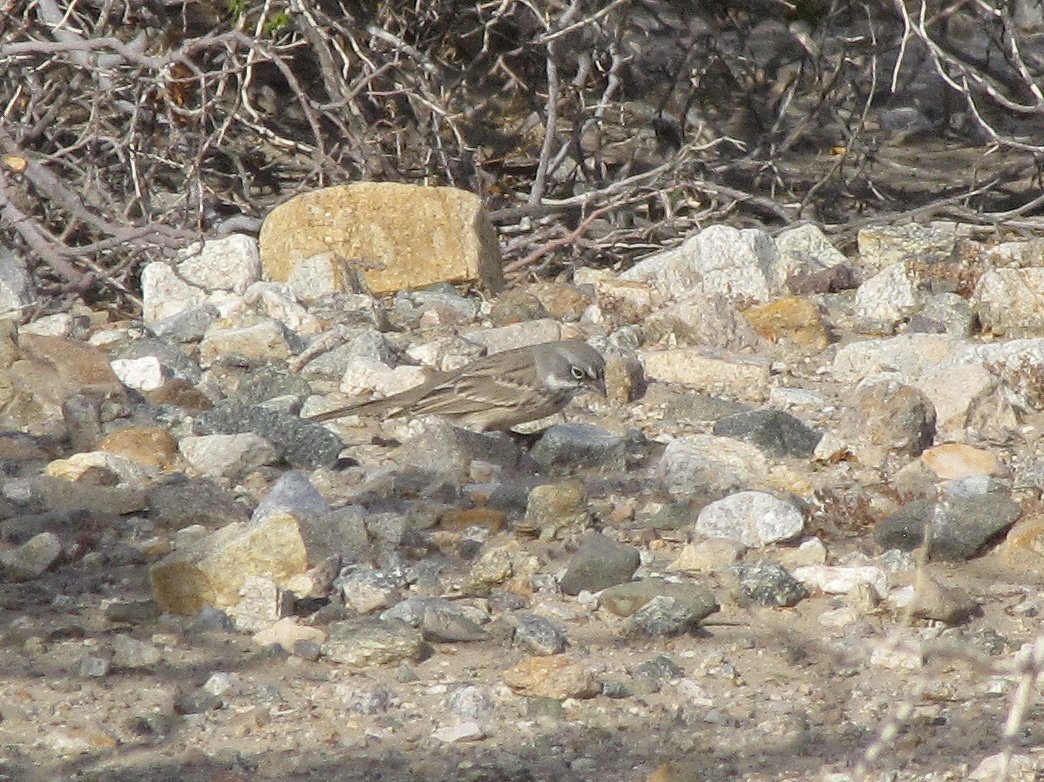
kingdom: Animalia
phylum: Chordata
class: Aves
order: Passeriformes
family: Passerellidae
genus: Artemisiospiza
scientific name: Artemisiospiza nevadensis
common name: Sagebrush sparrow
